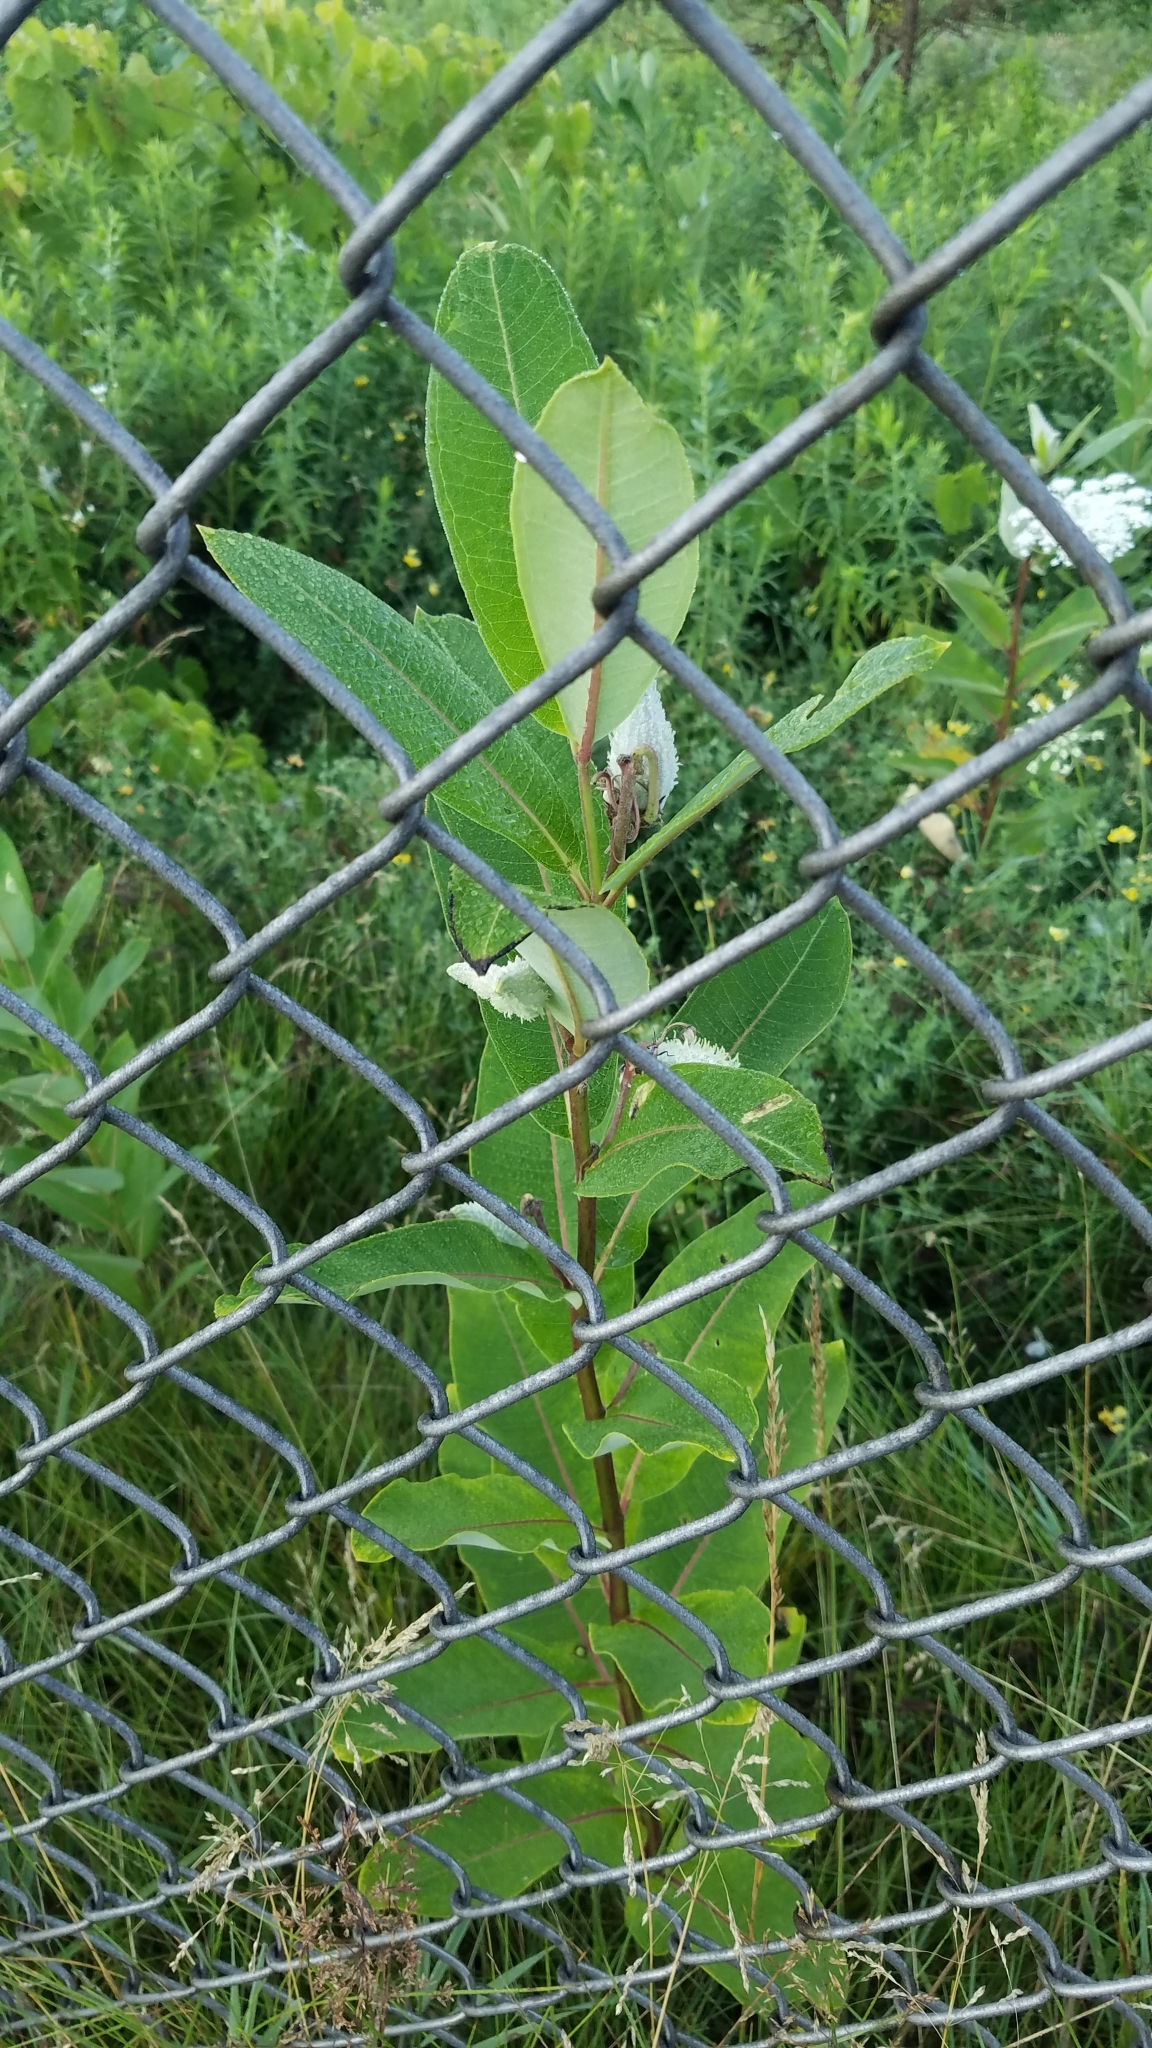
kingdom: Plantae
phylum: Tracheophyta
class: Magnoliopsida
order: Gentianales
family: Apocynaceae
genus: Asclepias
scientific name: Asclepias syriaca
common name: Common milkweed
